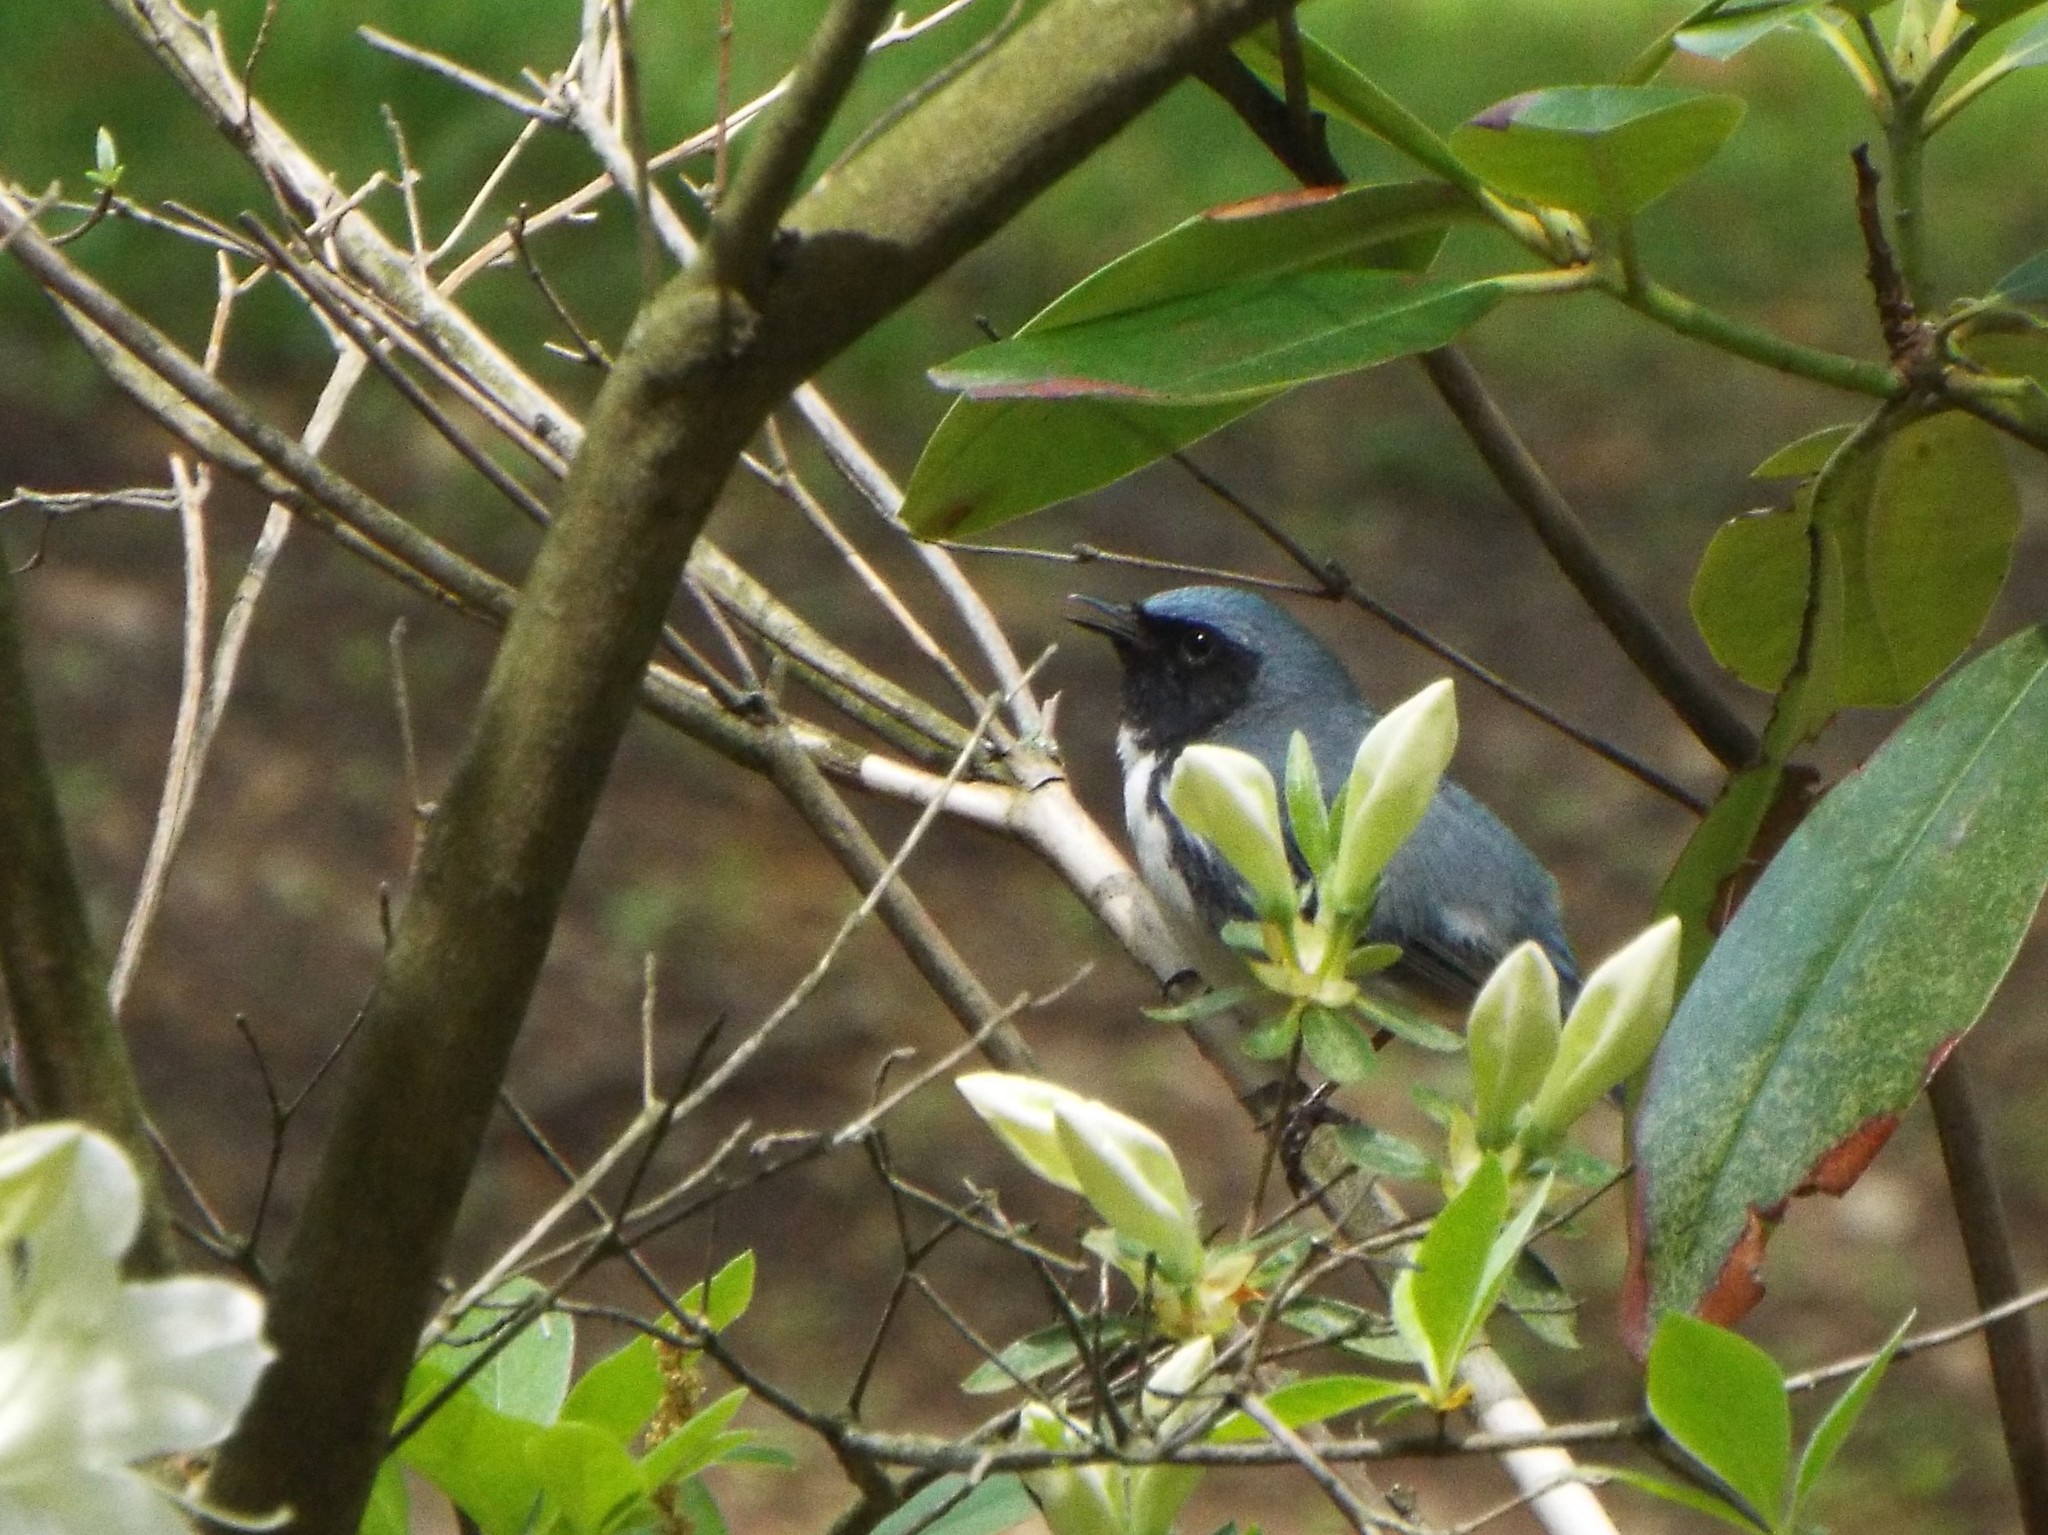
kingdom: Animalia
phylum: Chordata
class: Aves
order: Passeriformes
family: Parulidae
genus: Setophaga
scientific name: Setophaga caerulescens
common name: Black-throated blue warbler
